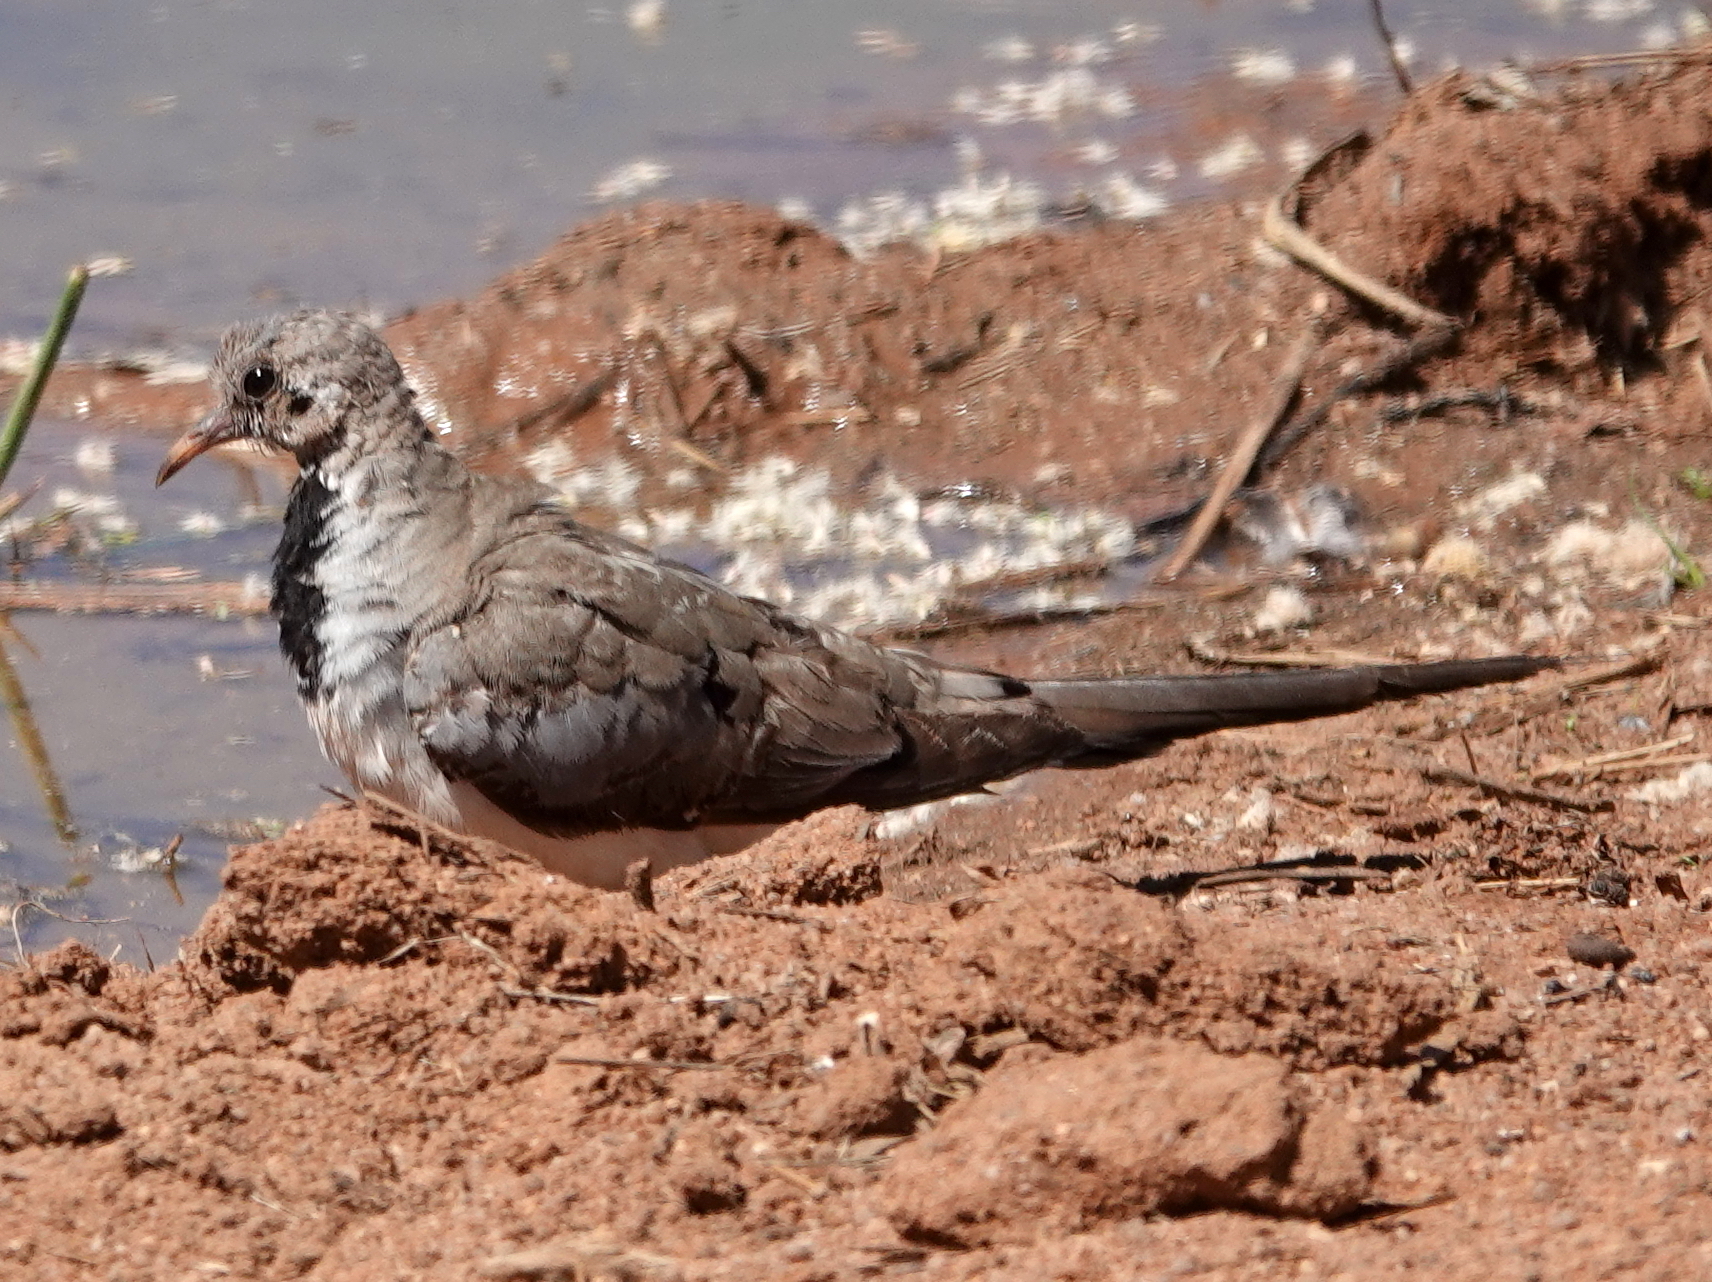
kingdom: Animalia
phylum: Chordata
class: Aves
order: Columbiformes
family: Columbidae
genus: Oena
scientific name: Oena capensis
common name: Namaqua dove
